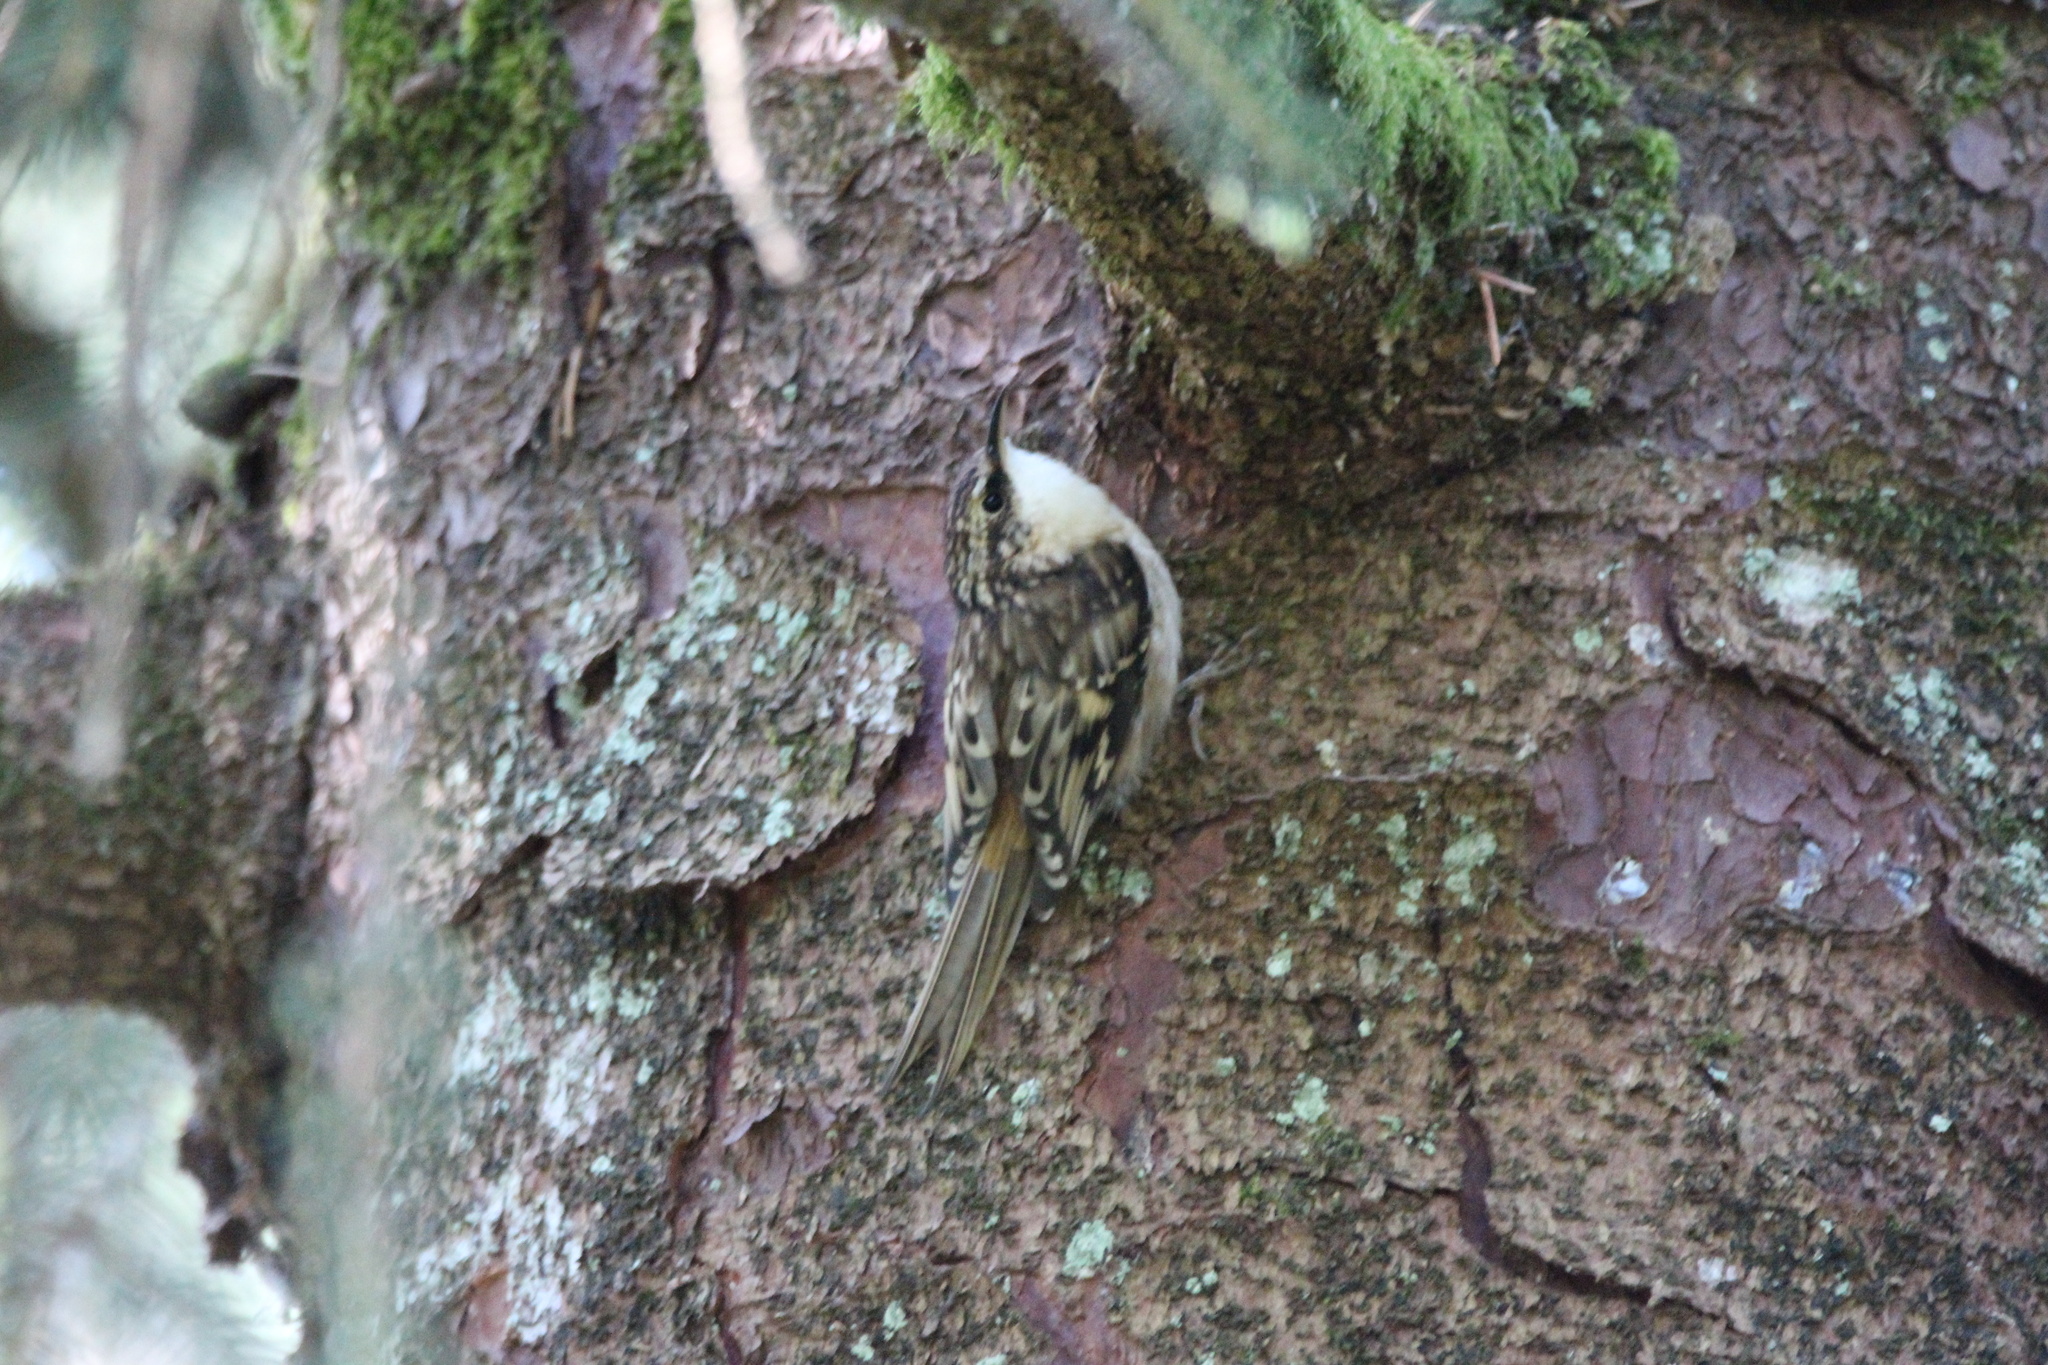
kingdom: Animalia
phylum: Chordata
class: Aves
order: Passeriformes
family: Certhiidae
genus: Certhia
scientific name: Certhia americana
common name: Brown creeper
